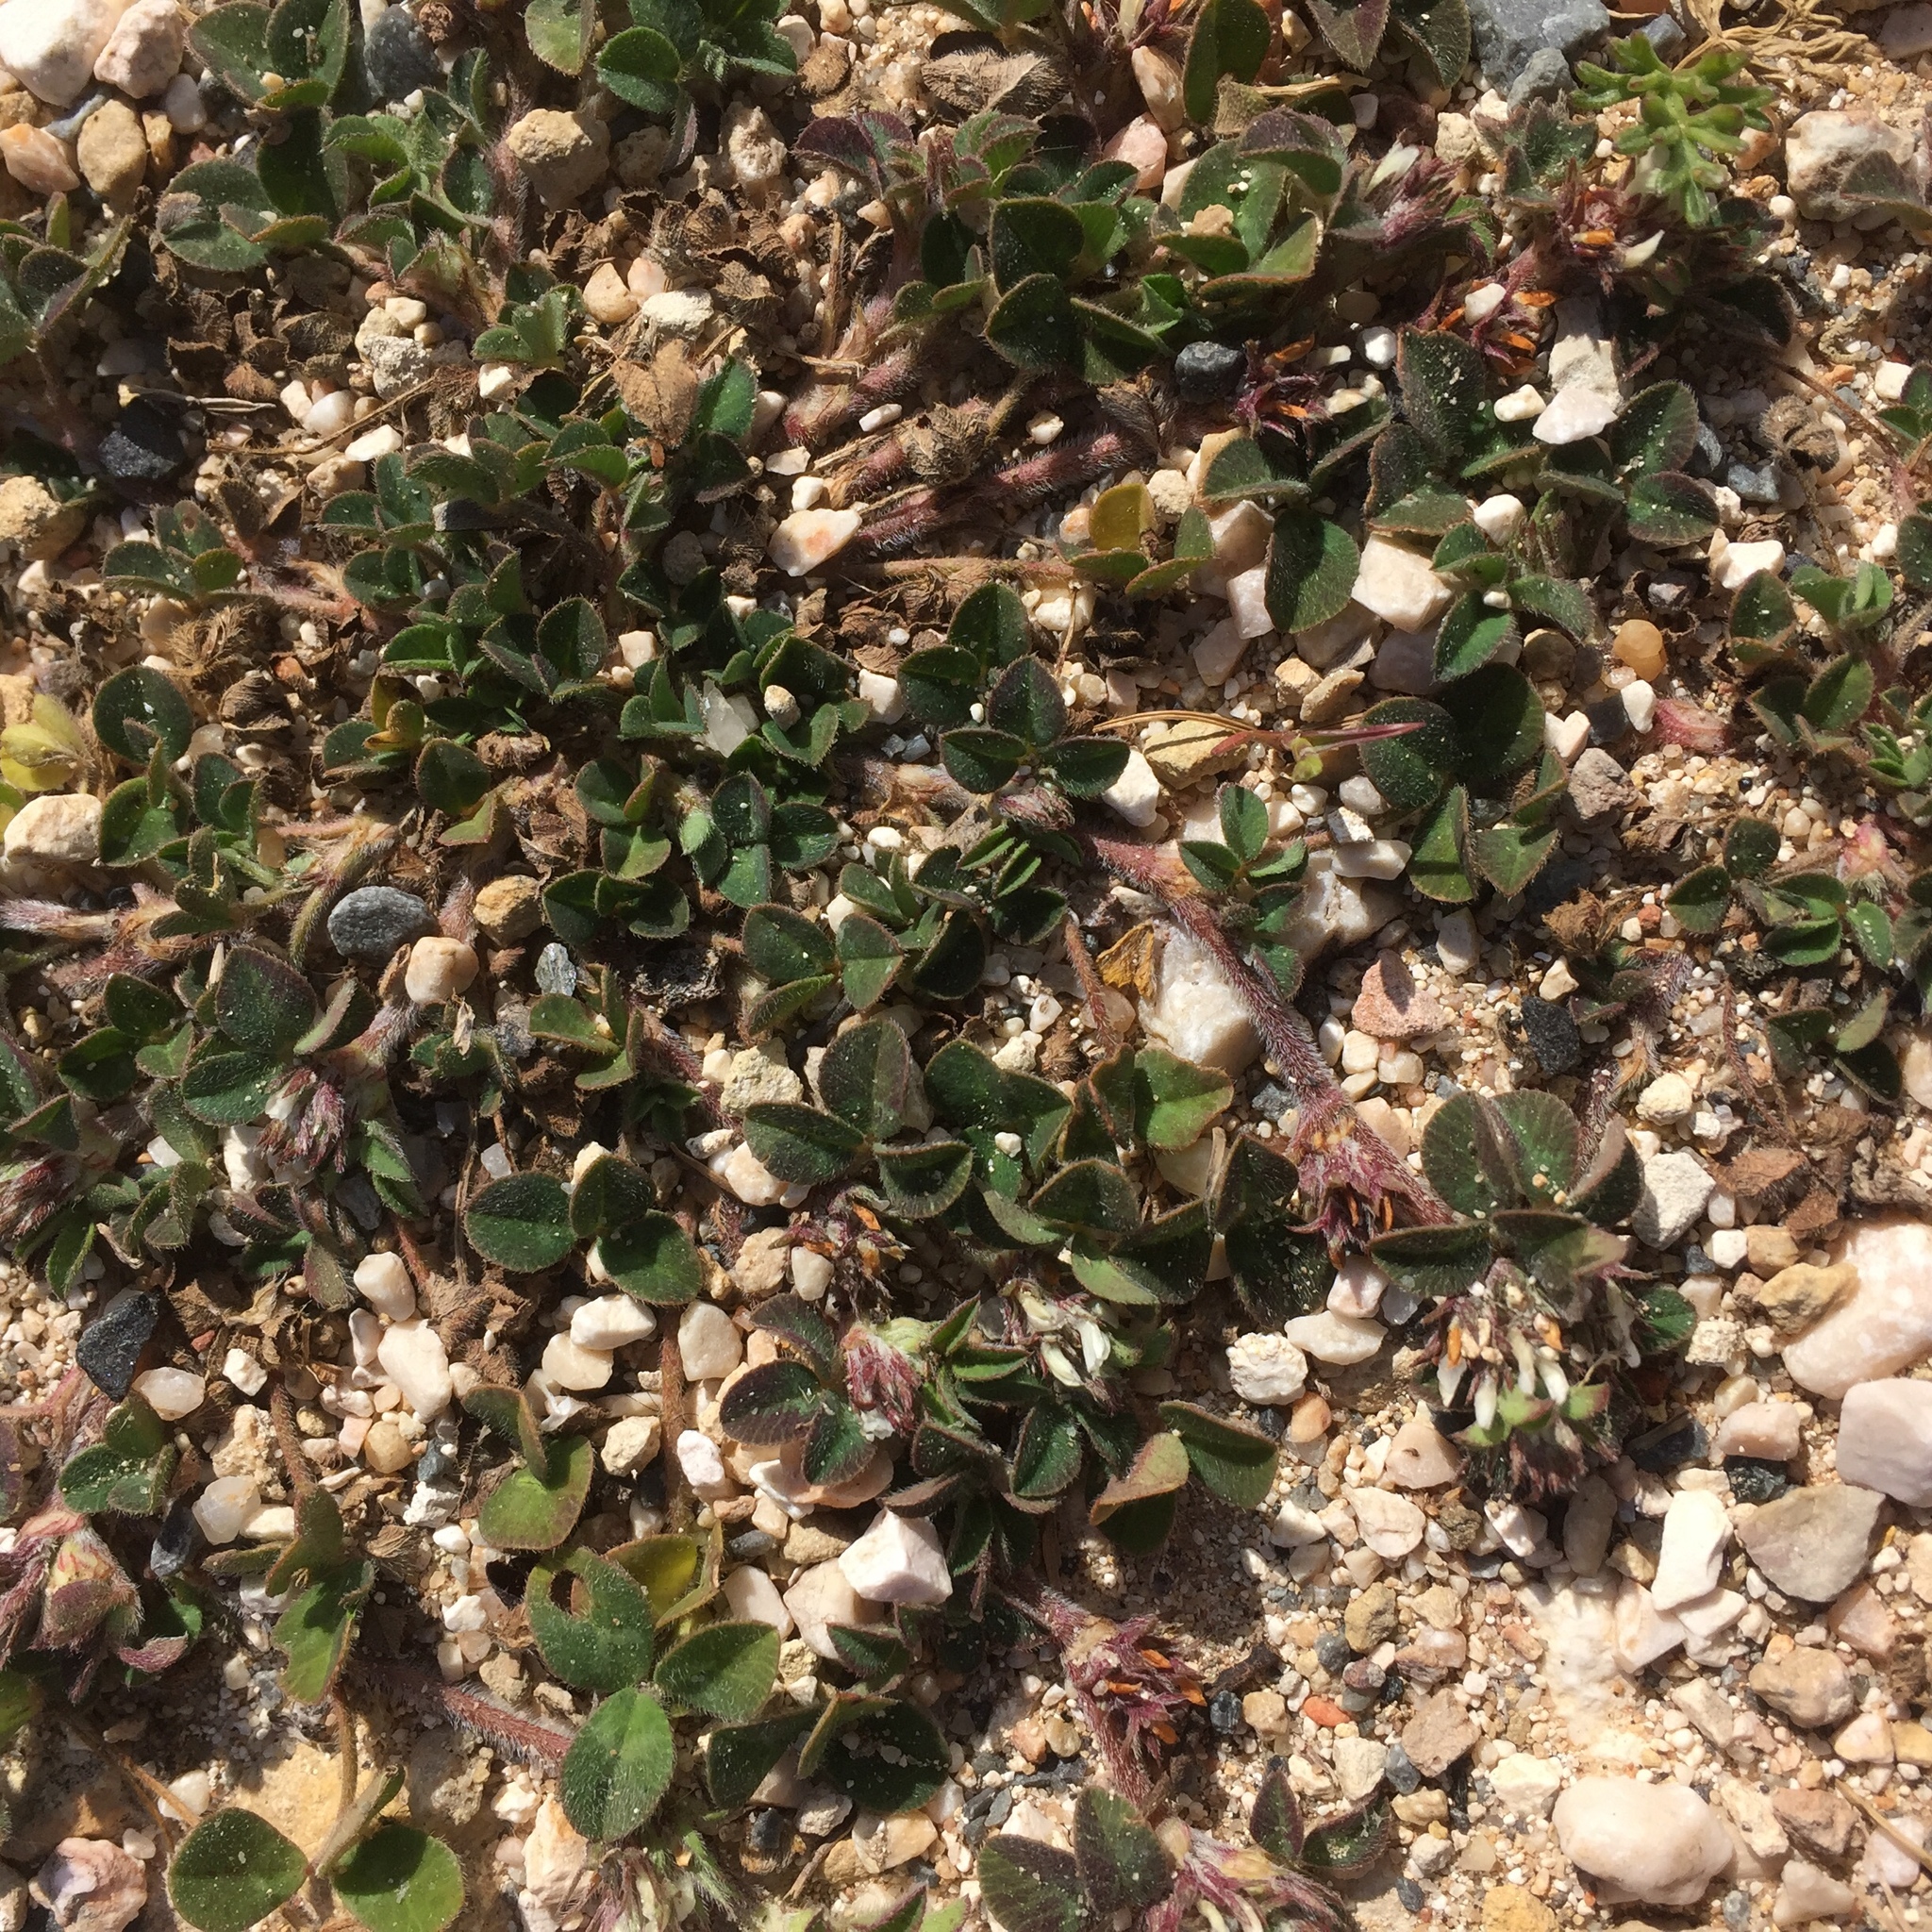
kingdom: Plantae
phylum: Tracheophyta
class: Magnoliopsida
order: Fabales
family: Fabaceae
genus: Trifolium
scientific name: Trifolium subterraneum
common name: Subterranean clover
